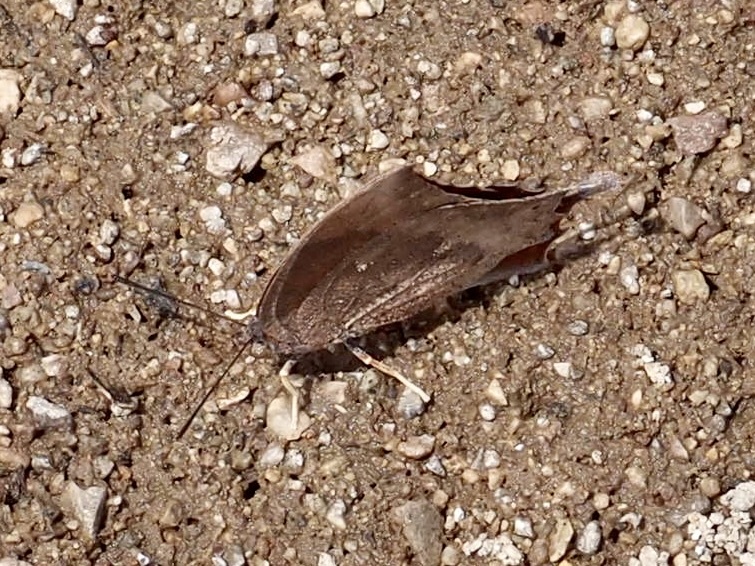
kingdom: Animalia
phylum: Arthropoda
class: Insecta
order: Lepidoptera
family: Nymphalidae
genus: Anaea
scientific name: Anaea aidea
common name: Tropical leafwing
